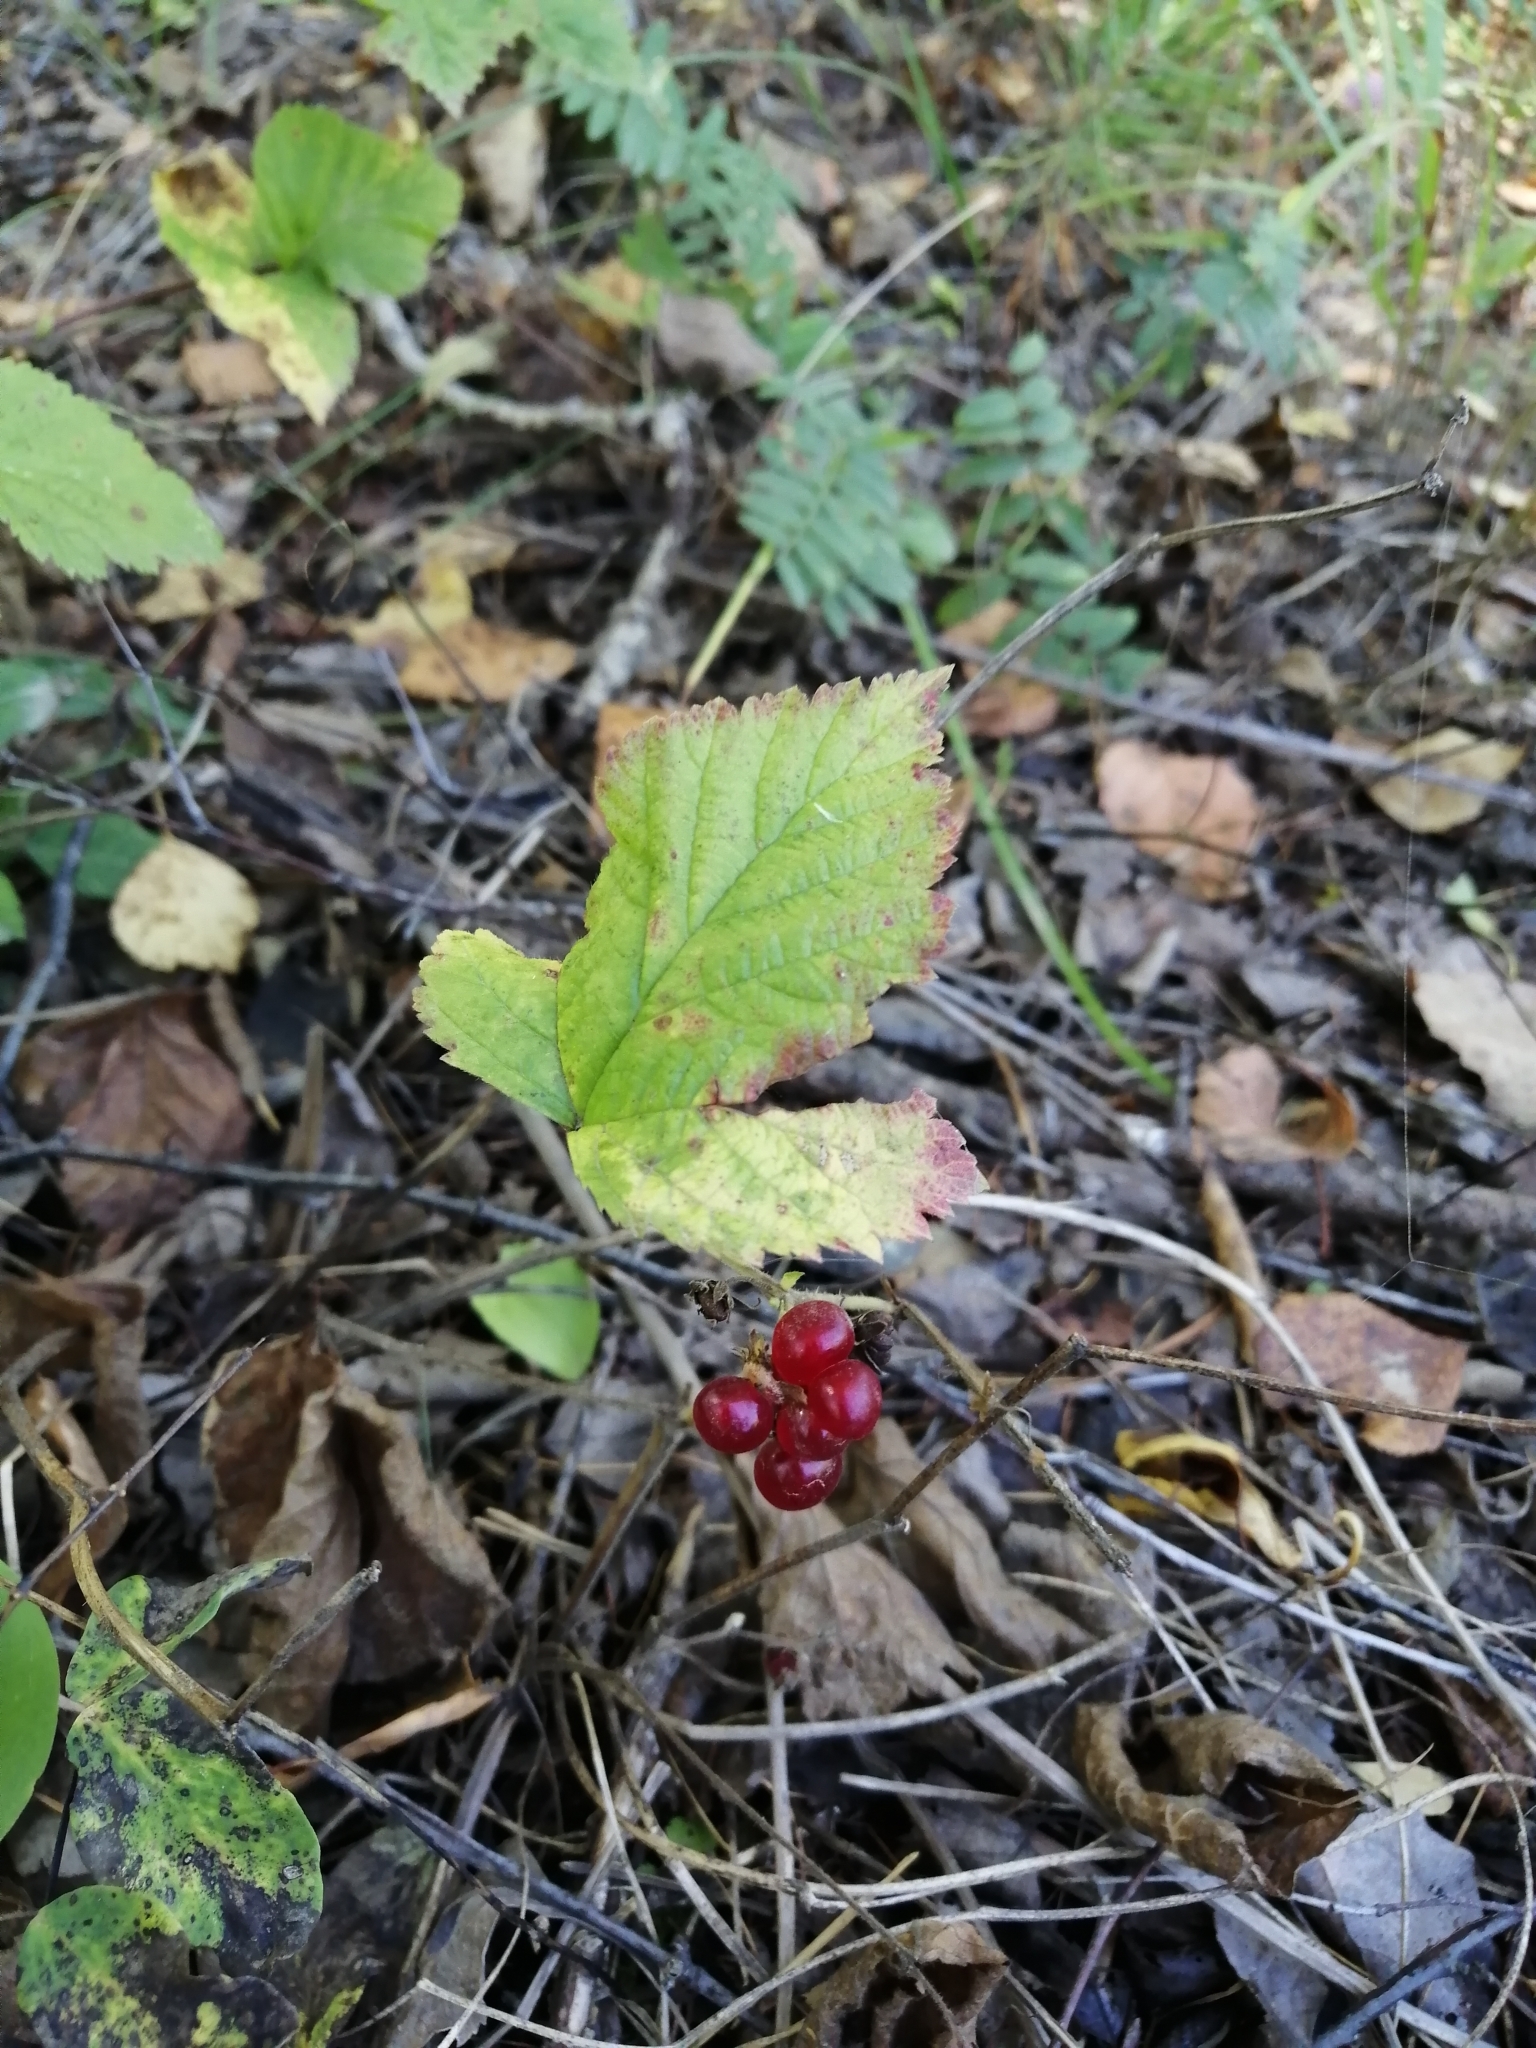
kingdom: Plantae
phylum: Tracheophyta
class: Magnoliopsida
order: Rosales
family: Rosaceae
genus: Rubus
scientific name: Rubus saxatilis
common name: Stone bramble
